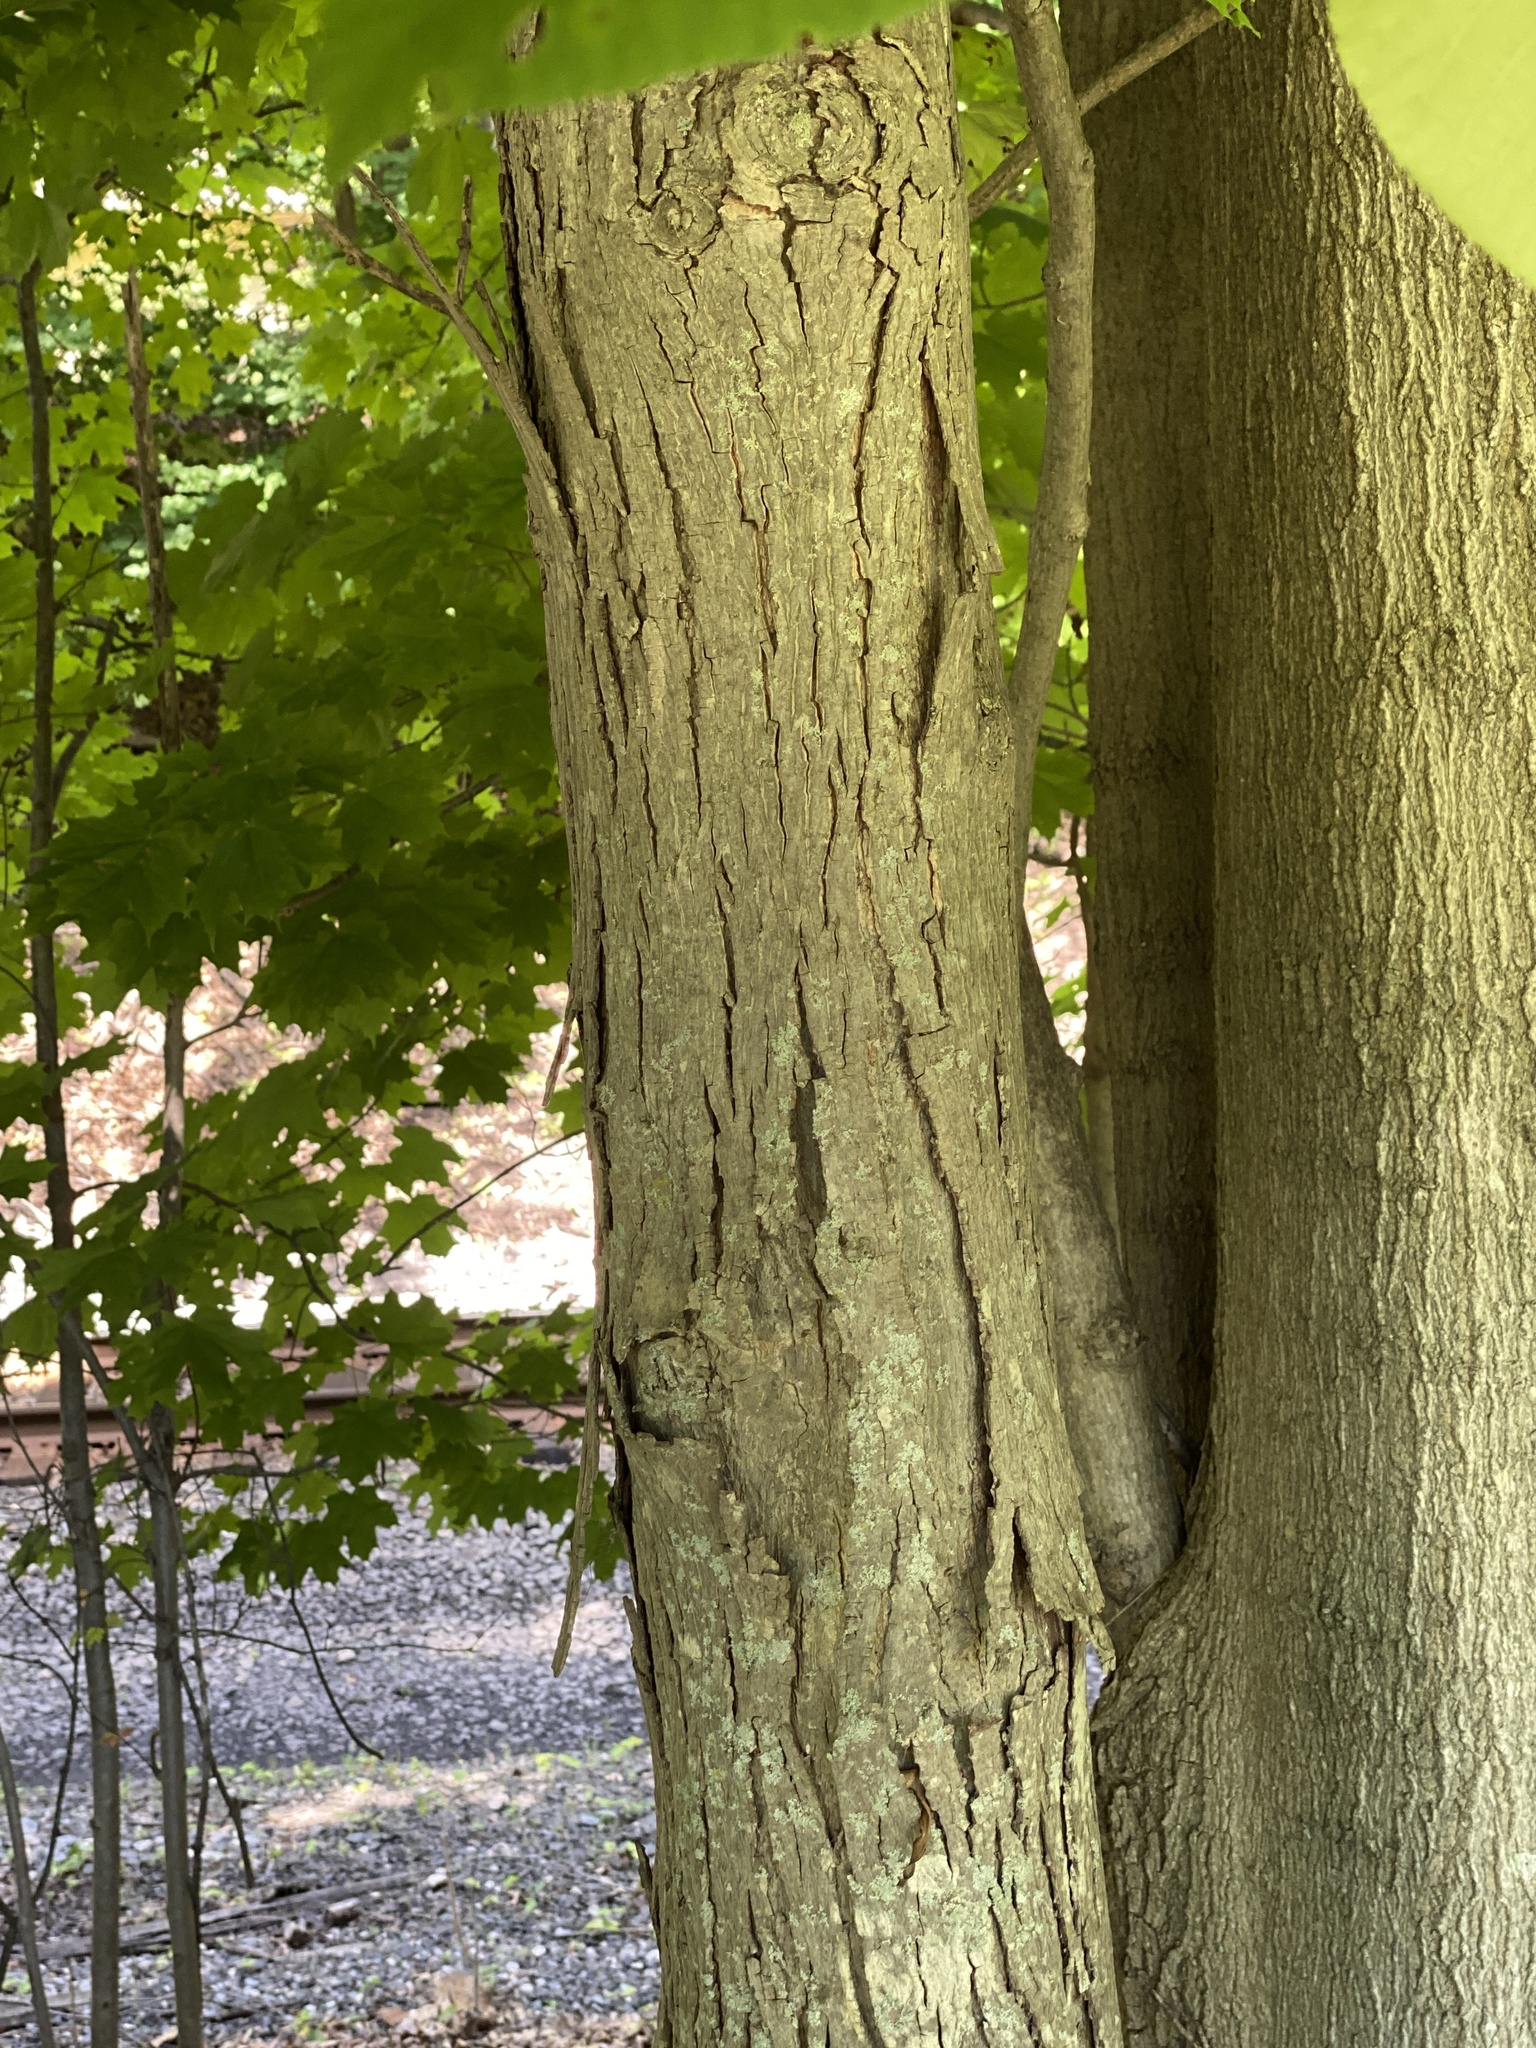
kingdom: Plantae
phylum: Tracheophyta
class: Magnoliopsida
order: Fagales
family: Juglandaceae
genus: Carya
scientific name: Carya ovata
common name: Shagbark hickory
